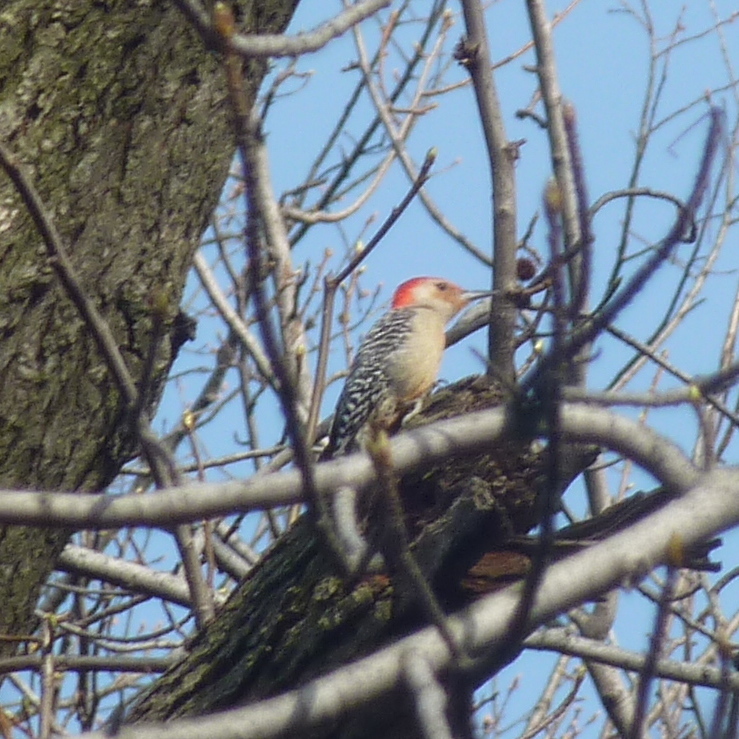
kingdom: Animalia
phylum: Chordata
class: Aves
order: Piciformes
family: Picidae
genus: Melanerpes
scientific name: Melanerpes carolinus
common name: Red-bellied woodpecker
